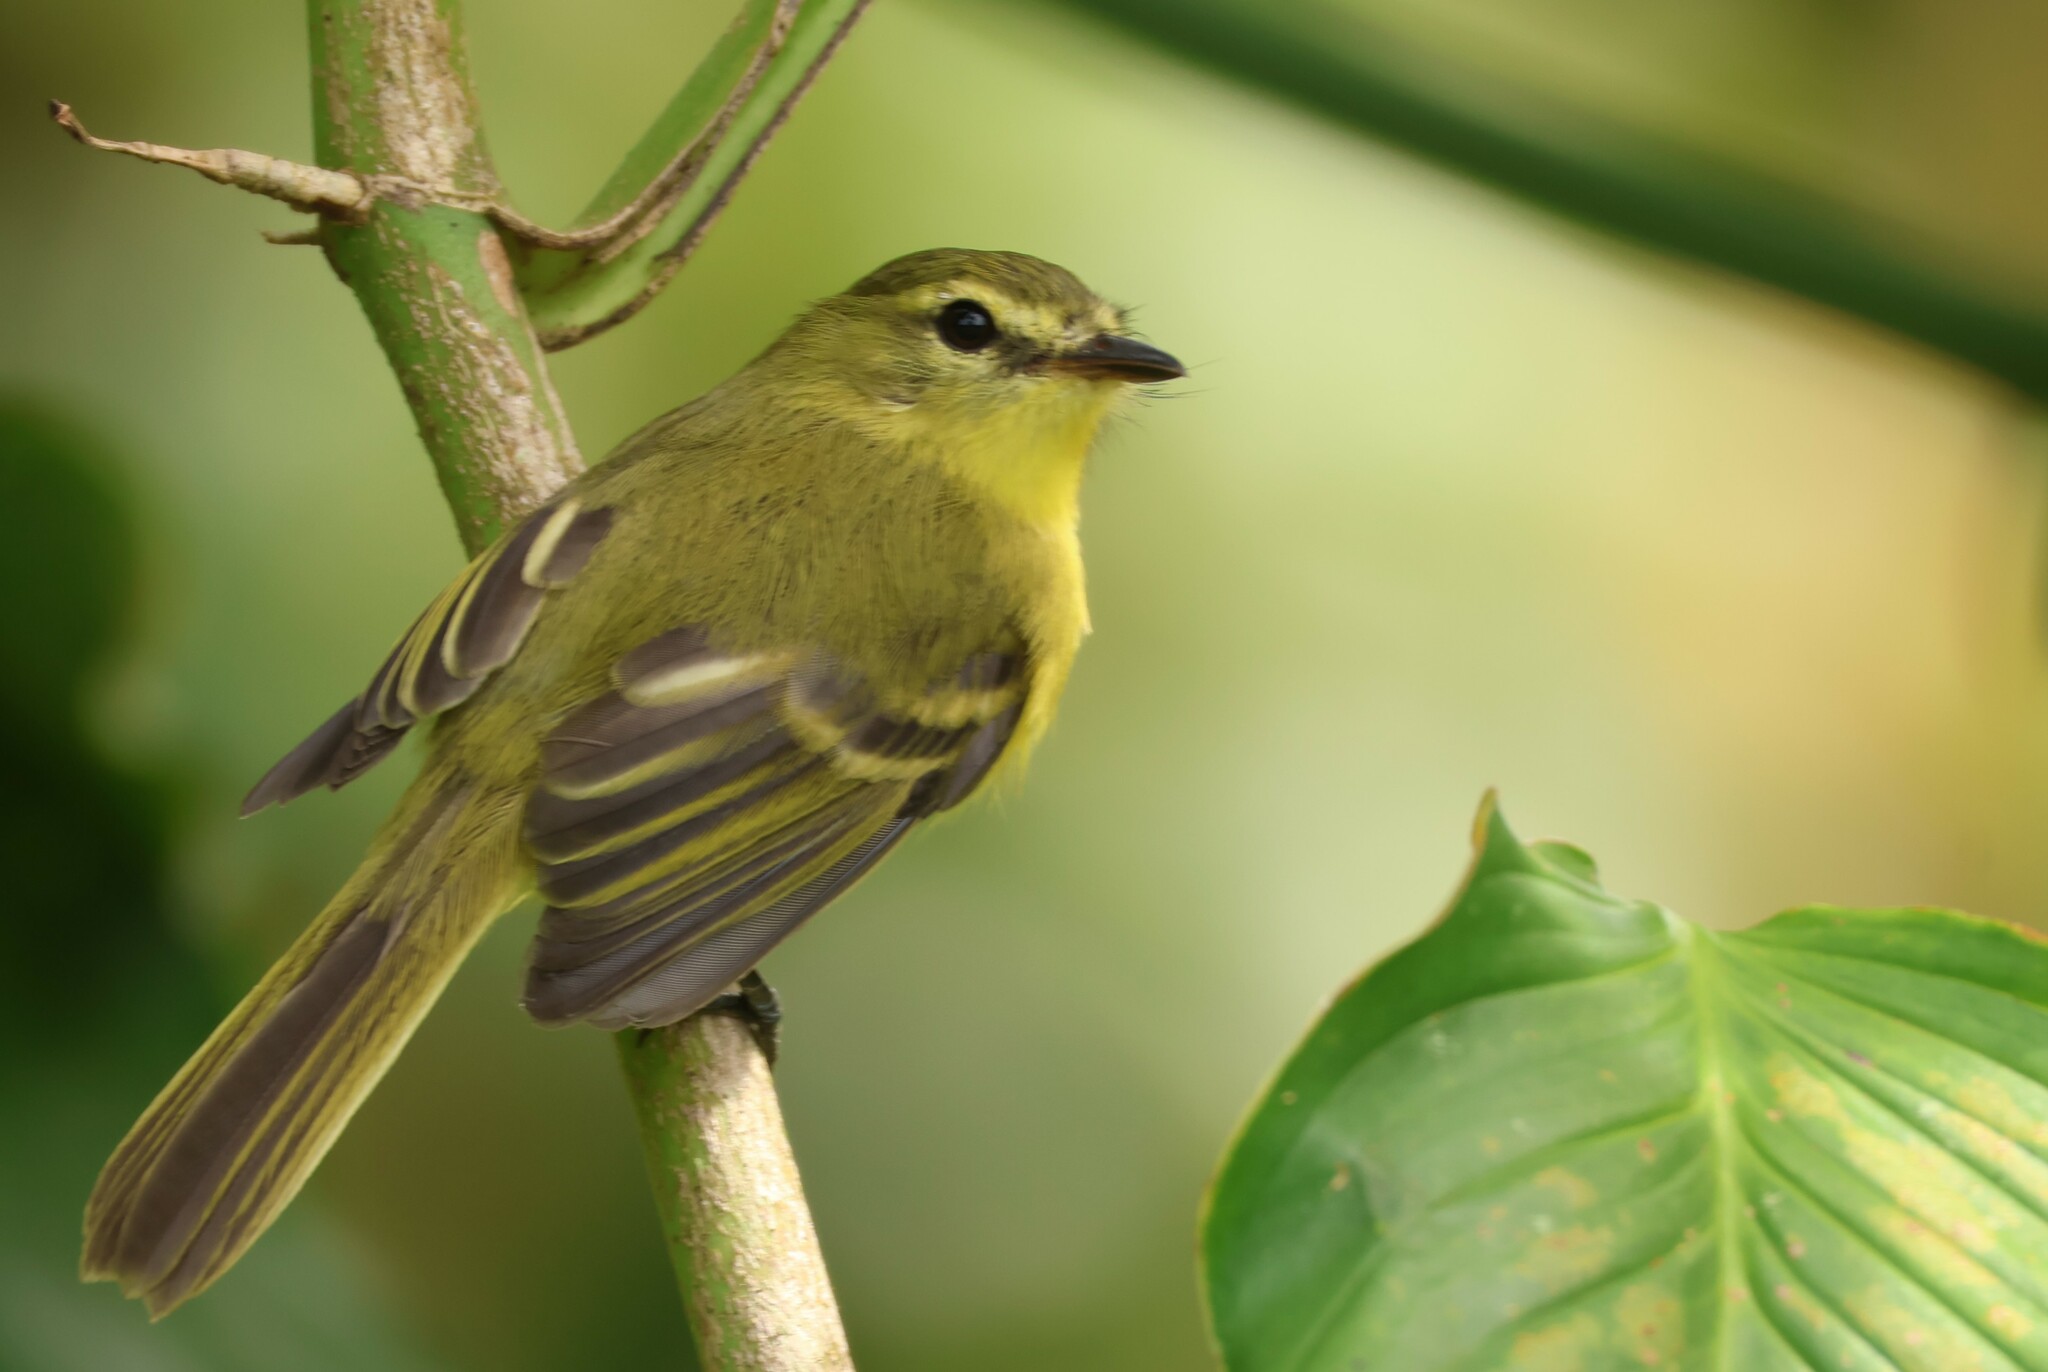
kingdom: Animalia
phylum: Chordata
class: Aves
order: Passeriformes
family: Tyrannidae
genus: Capsiempis
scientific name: Capsiempis flaveola
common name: Yellow tyrannulet
